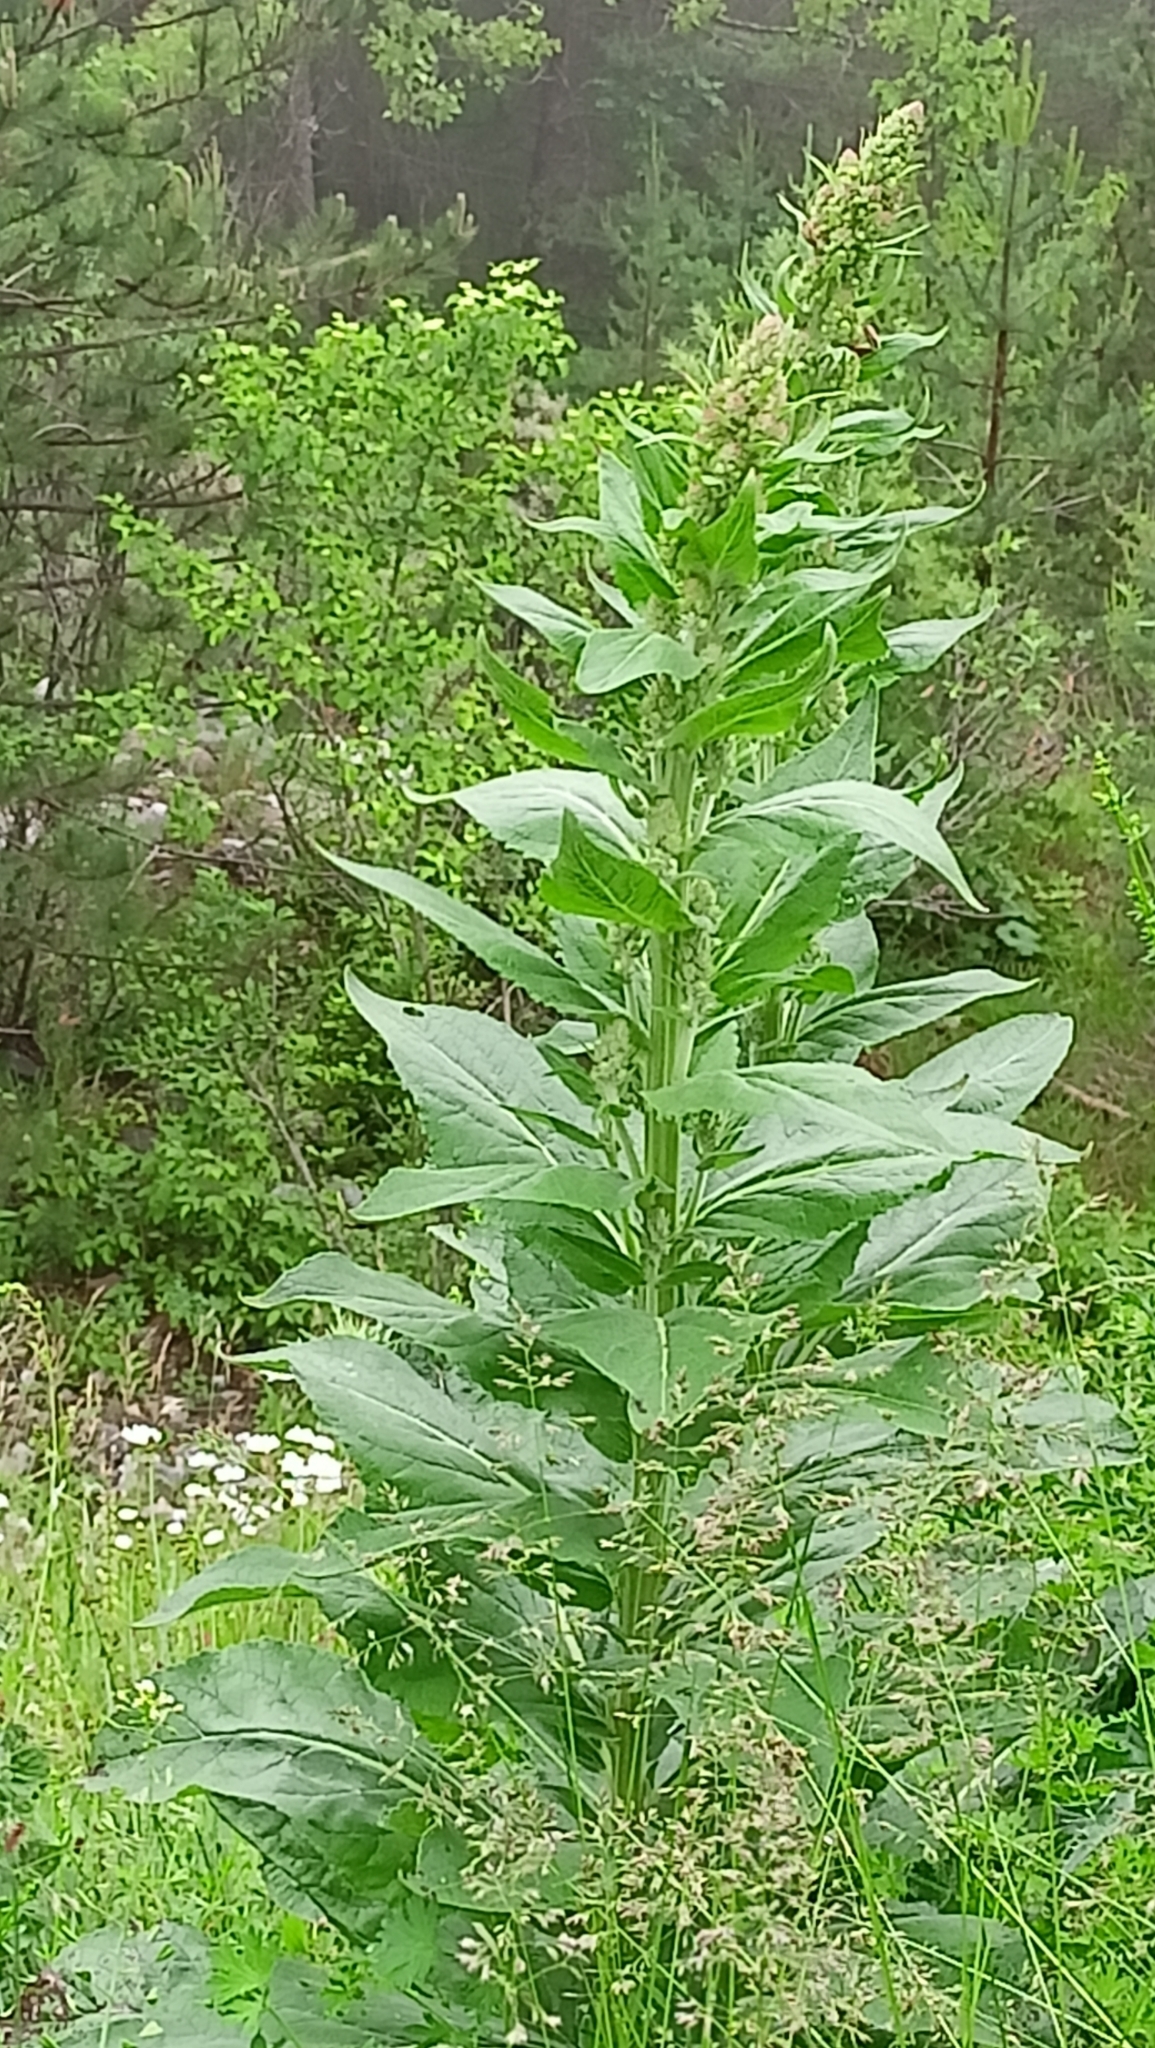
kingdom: Plantae
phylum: Tracheophyta
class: Magnoliopsida
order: Lamiales
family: Scrophulariaceae
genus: Verbascum
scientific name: Verbascum lychnitis
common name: White mullein
